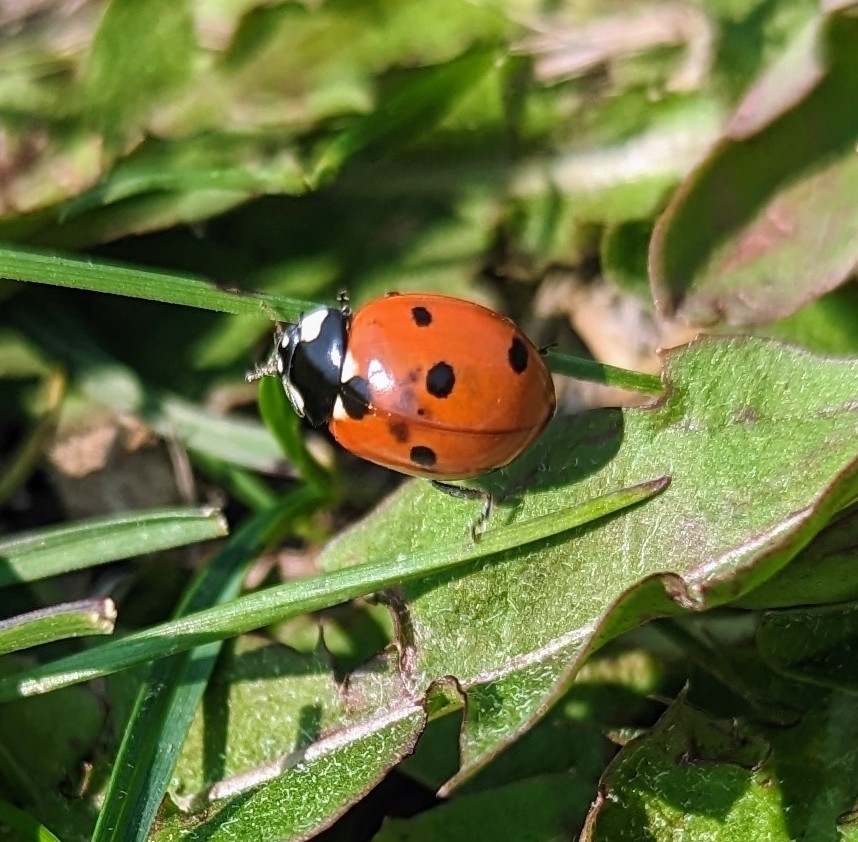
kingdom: Animalia
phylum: Arthropoda
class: Insecta
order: Coleoptera
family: Coccinellidae
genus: Coccinella
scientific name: Coccinella septempunctata
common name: Sevenspotted lady beetle
